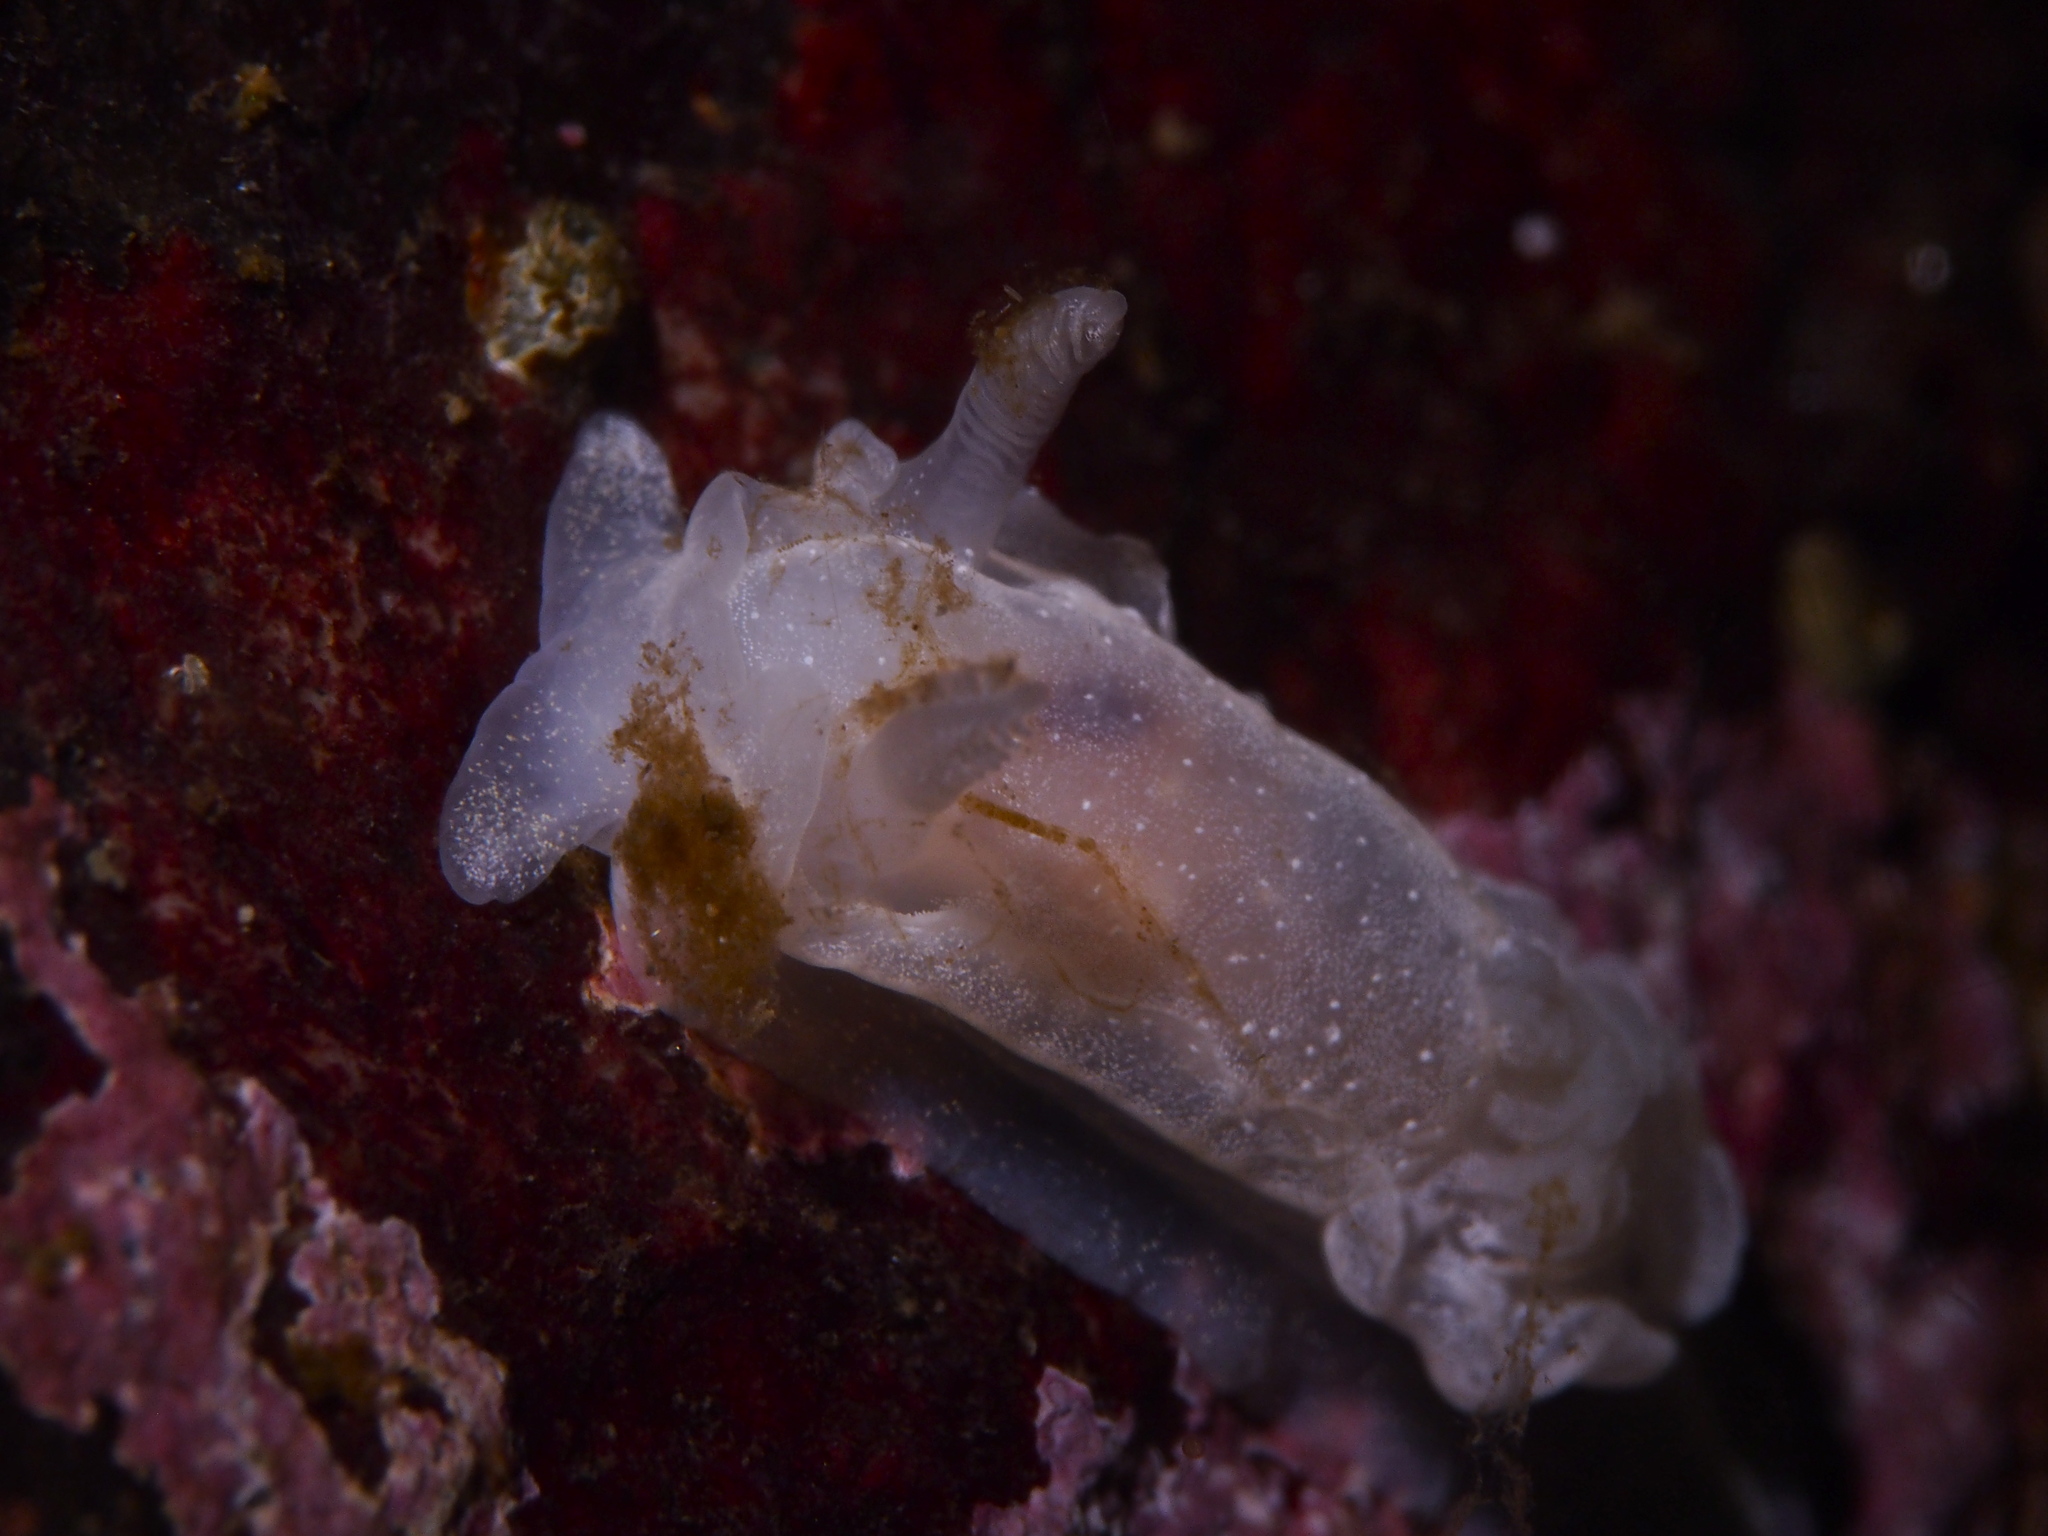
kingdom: Animalia
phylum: Mollusca
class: Gastropoda
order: Nudibranchia
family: Goniodorididae
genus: Okenia
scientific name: Okenia
